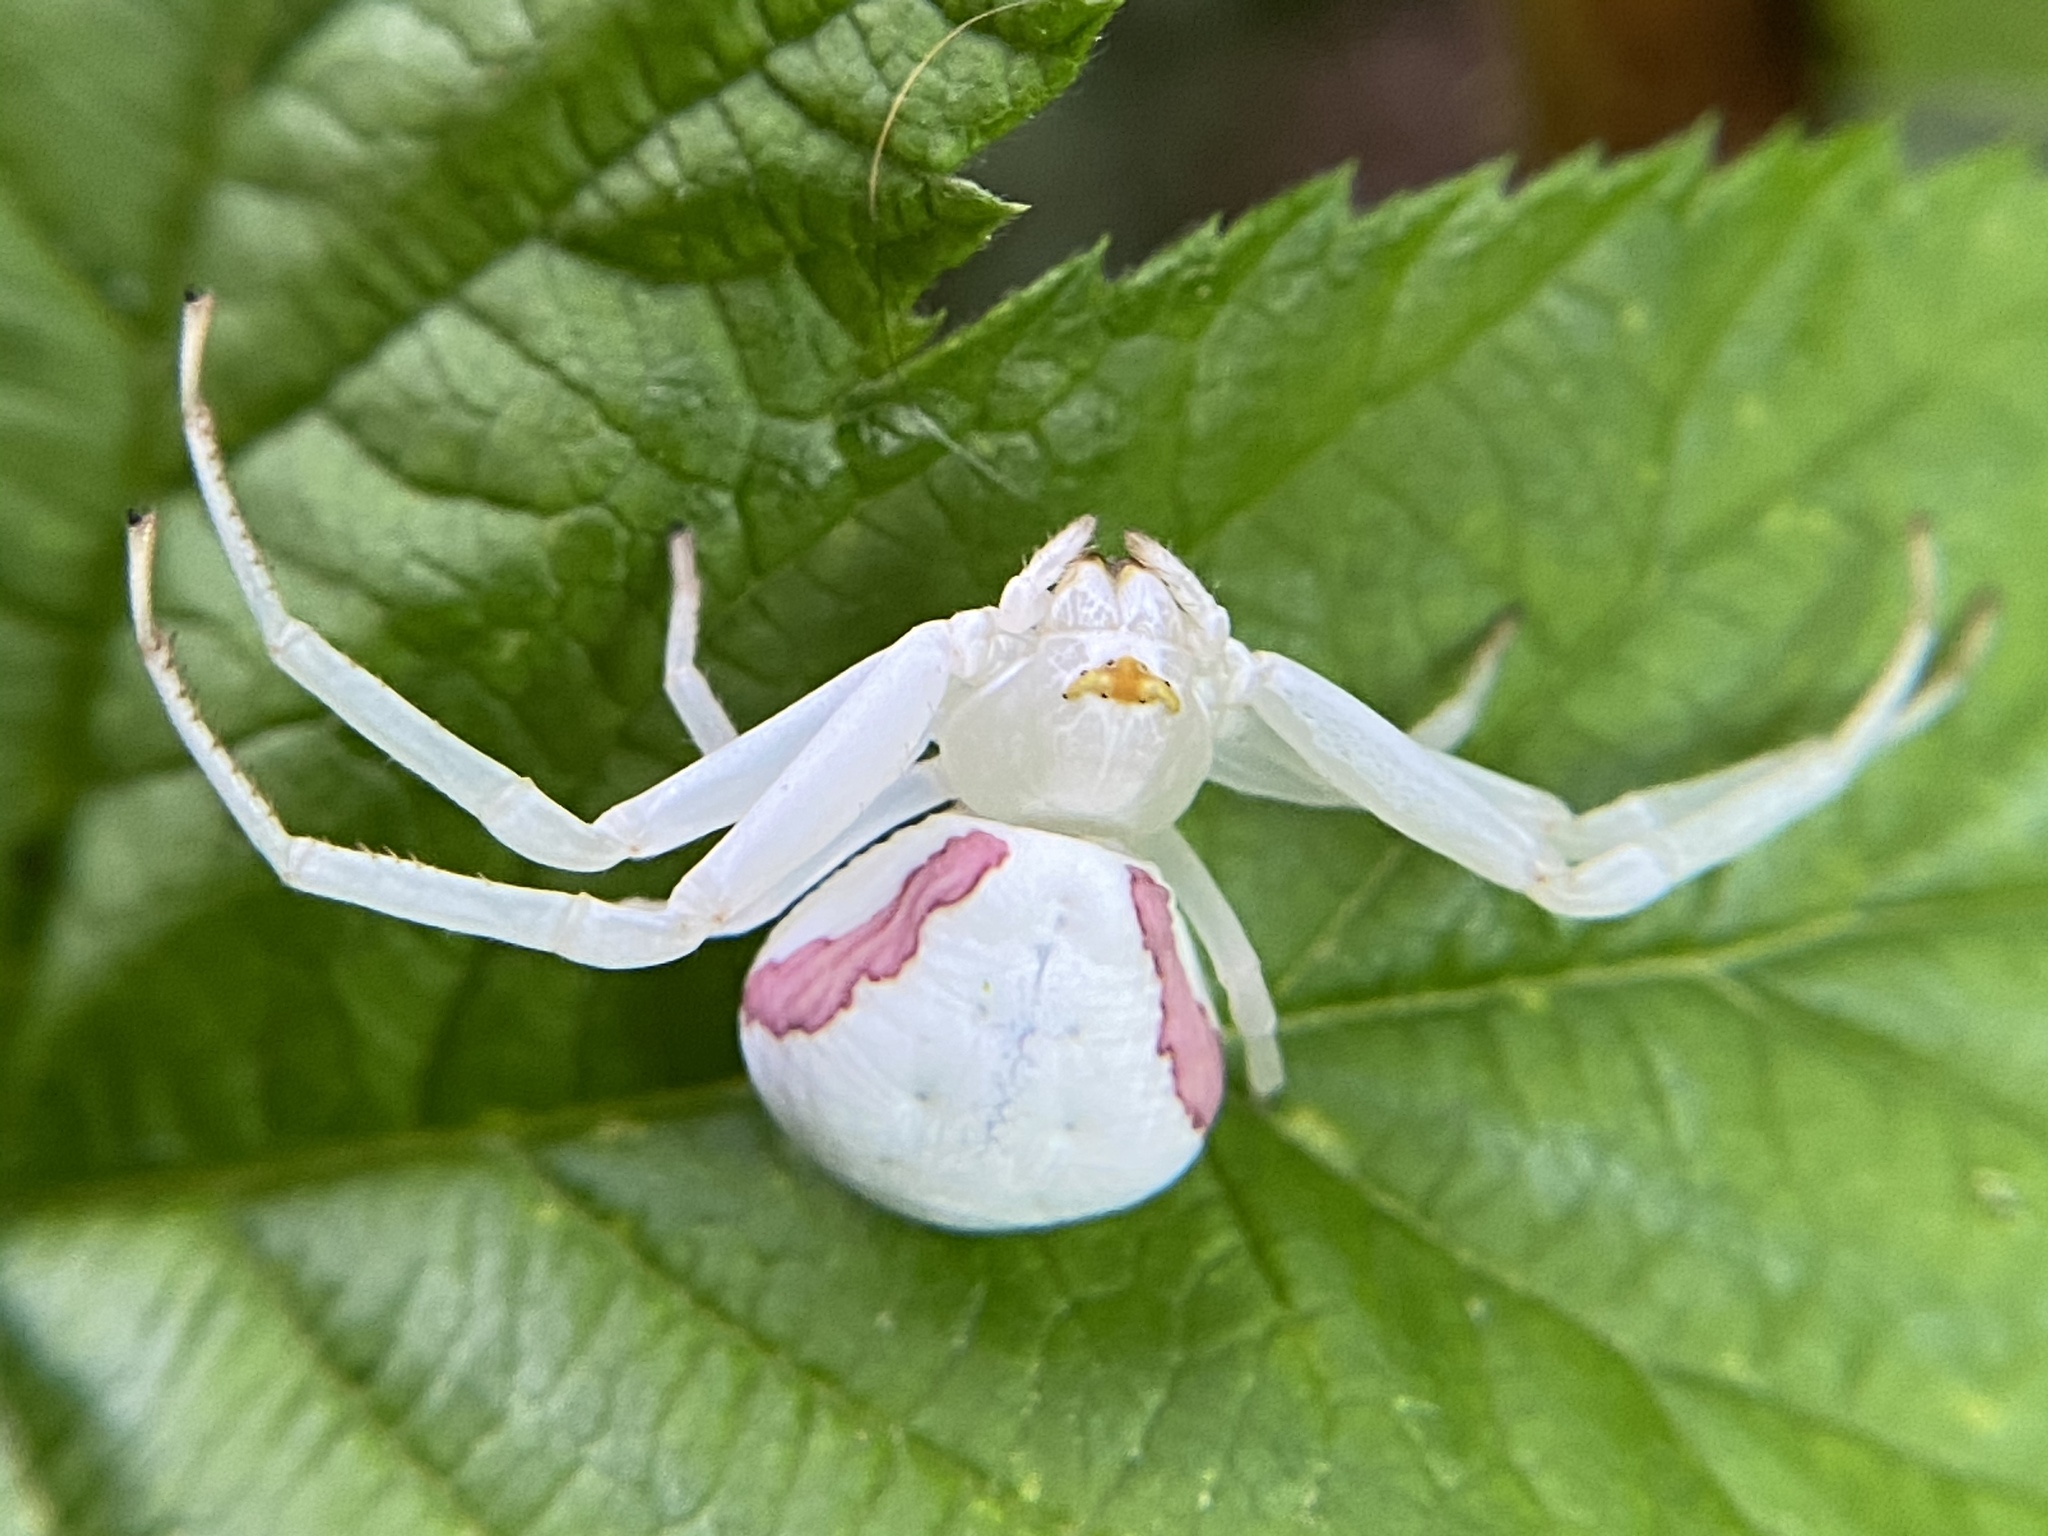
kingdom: Animalia
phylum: Arthropoda
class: Arachnida
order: Araneae
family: Thomisidae
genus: Misumena
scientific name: Misumena vatia
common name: Goldenrod crab spider
